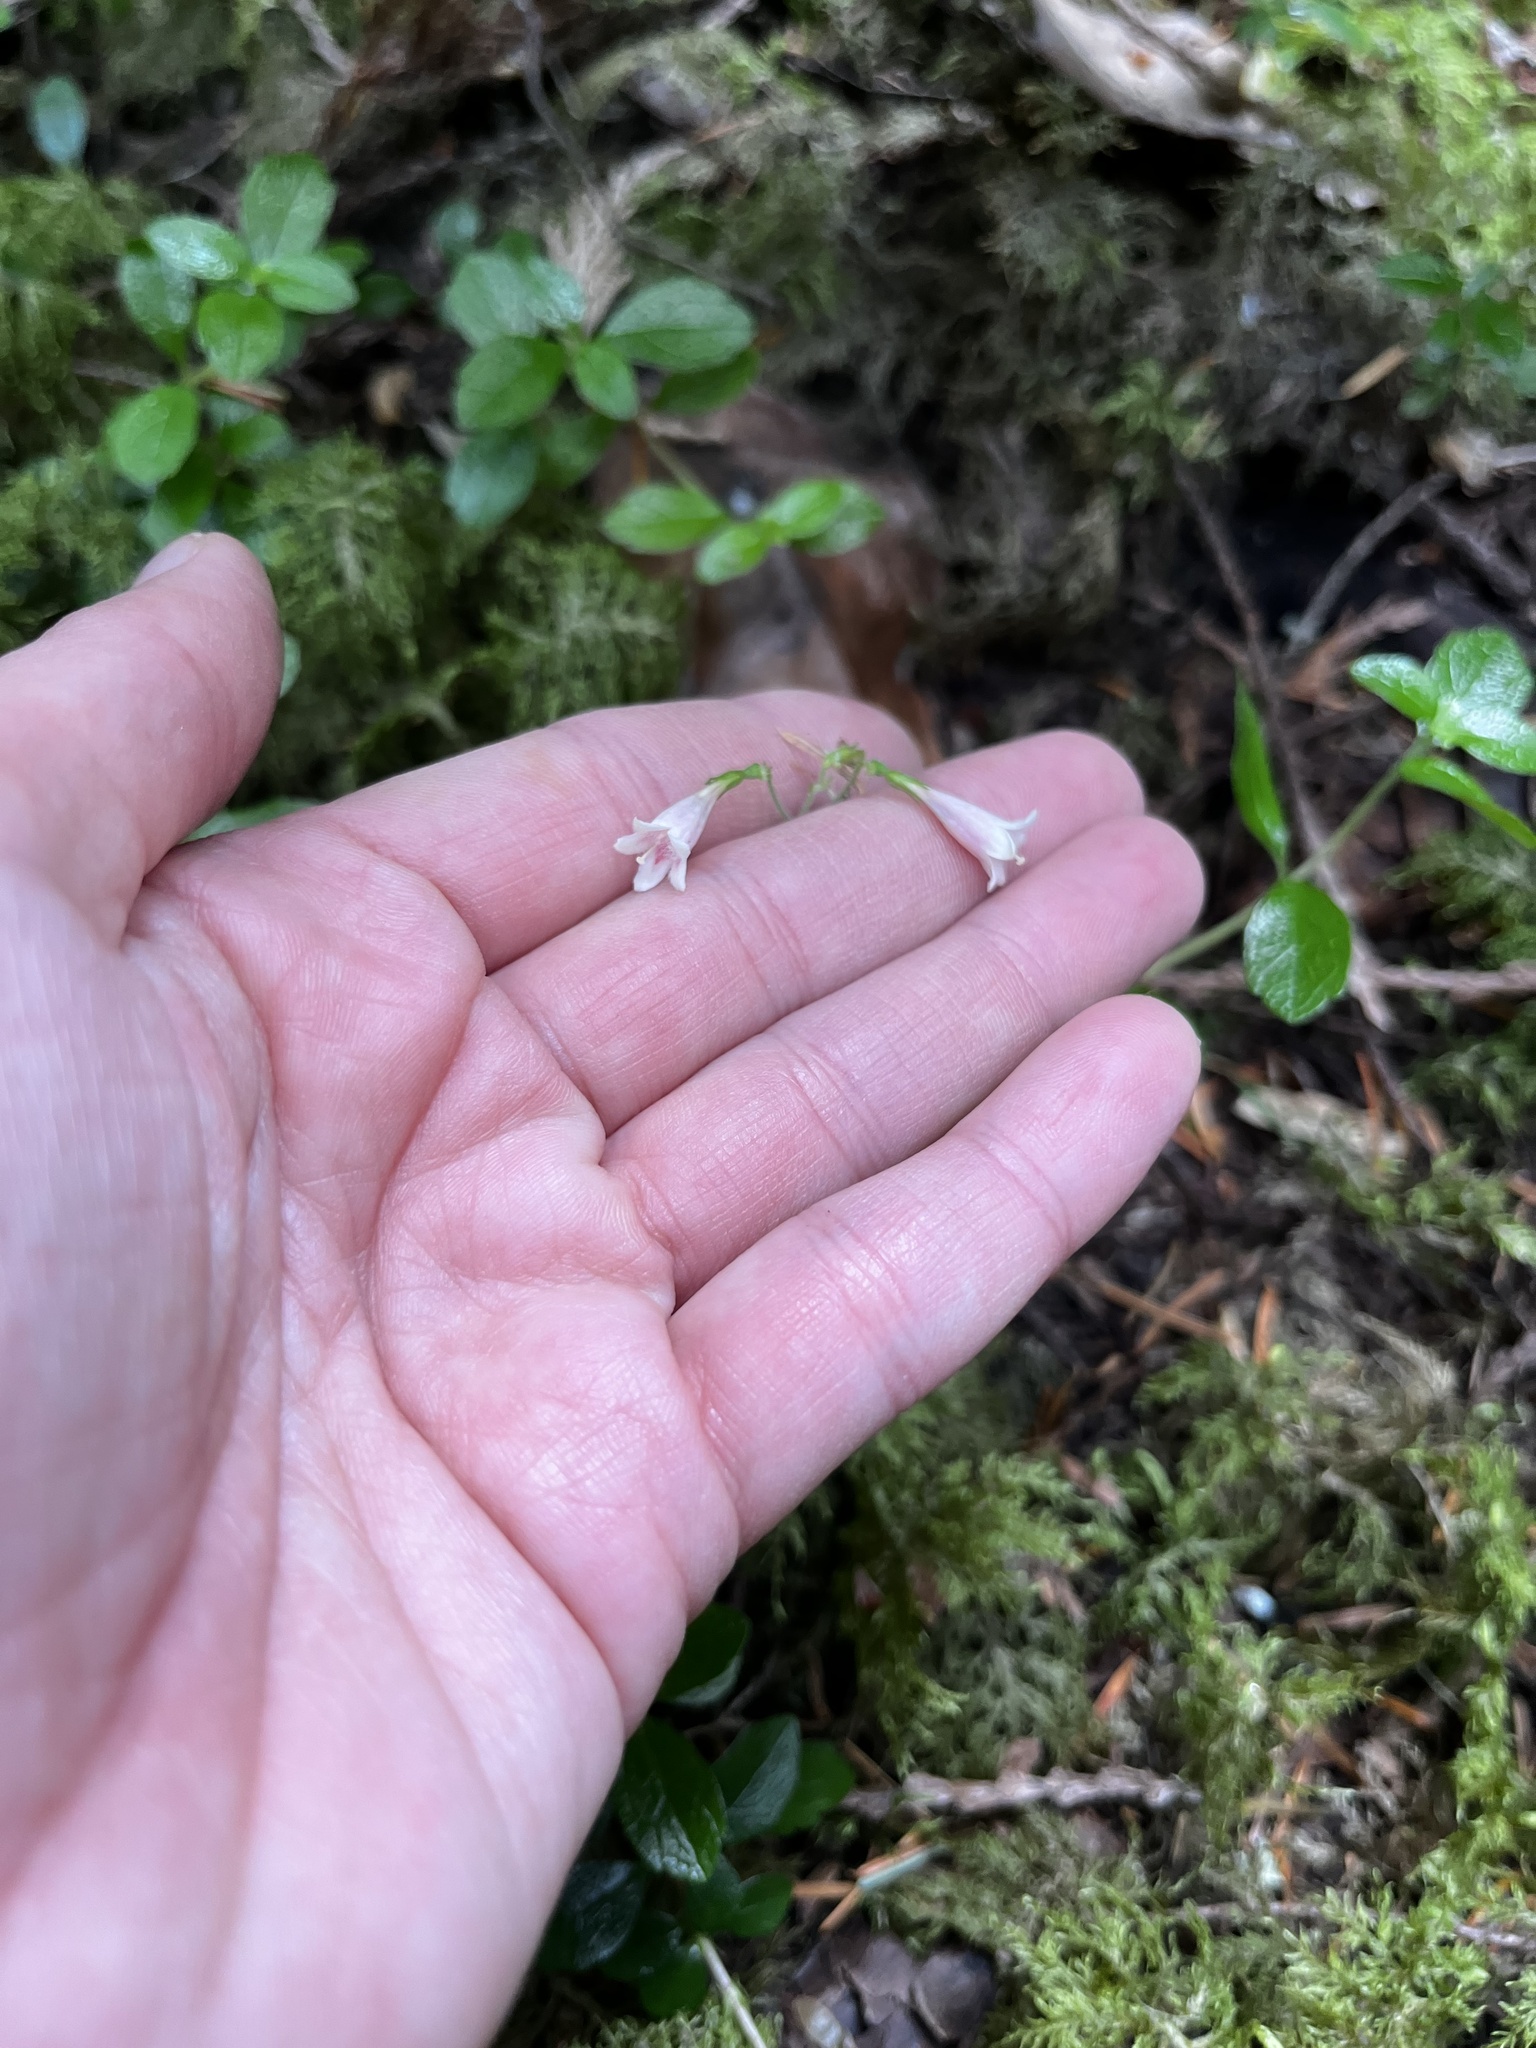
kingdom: Plantae
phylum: Tracheophyta
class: Magnoliopsida
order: Dipsacales
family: Caprifoliaceae
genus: Linnaea
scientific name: Linnaea borealis
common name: Twinflower
